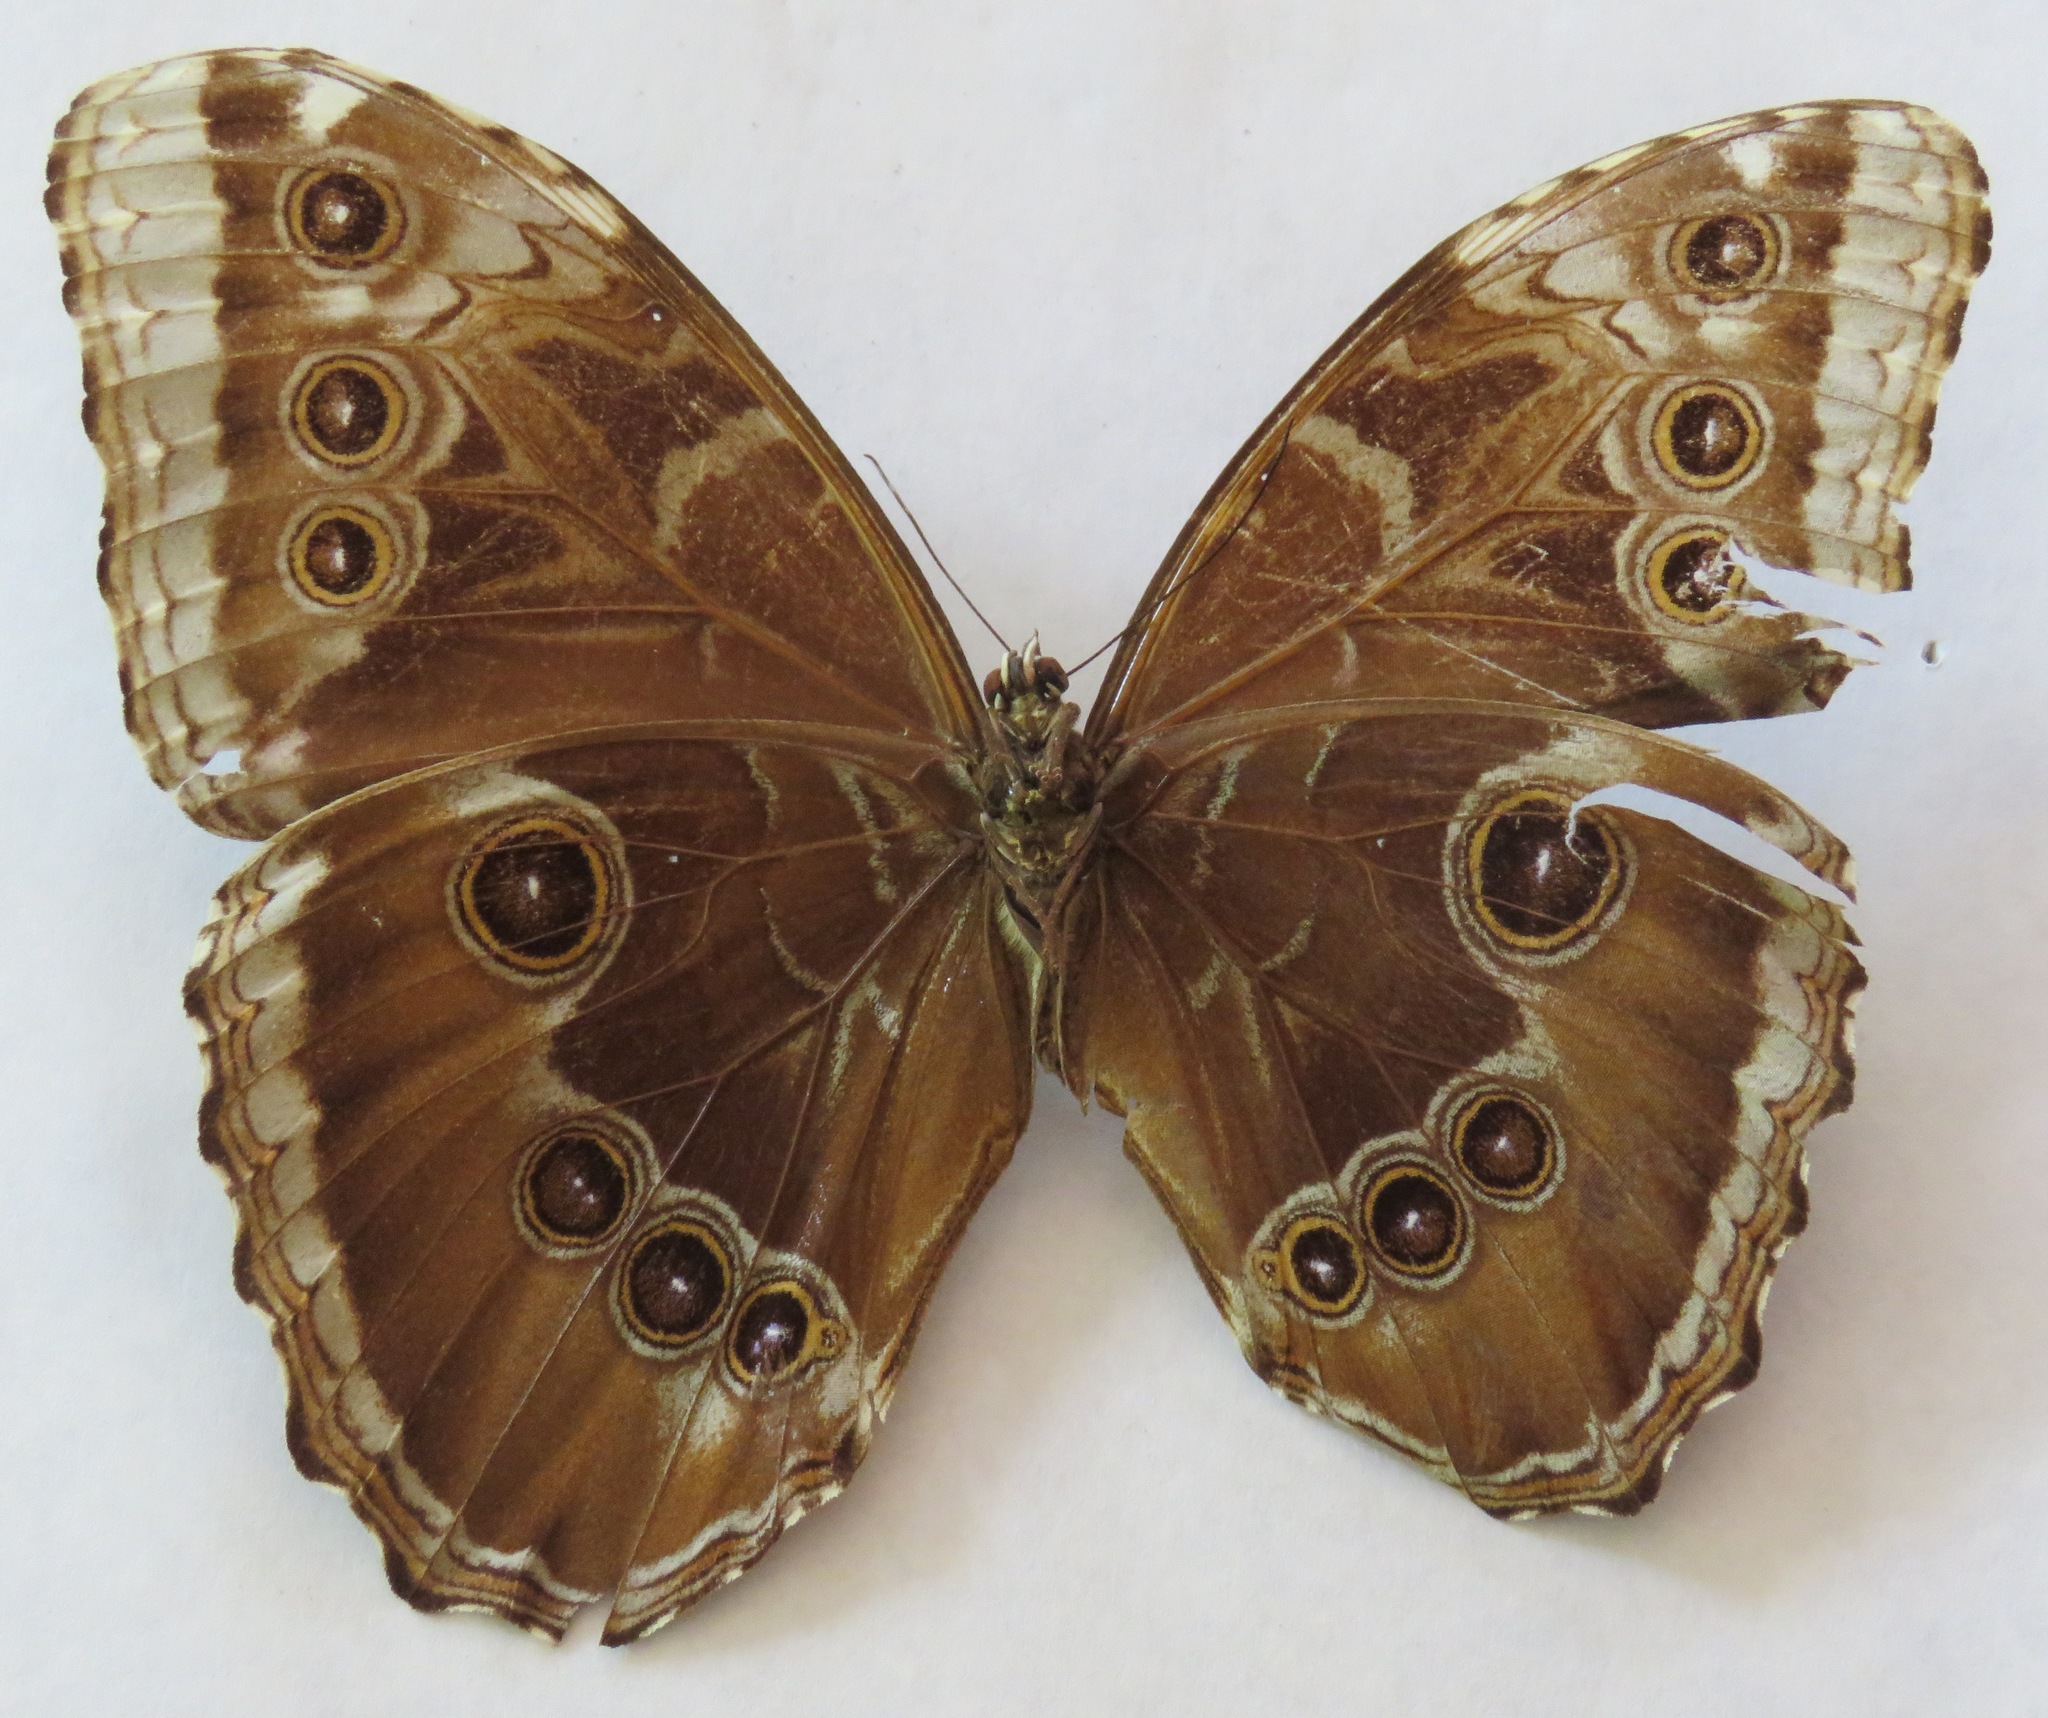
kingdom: Animalia
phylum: Arthropoda
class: Insecta
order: Lepidoptera
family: Nymphalidae
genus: Morpho
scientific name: Morpho helenor
